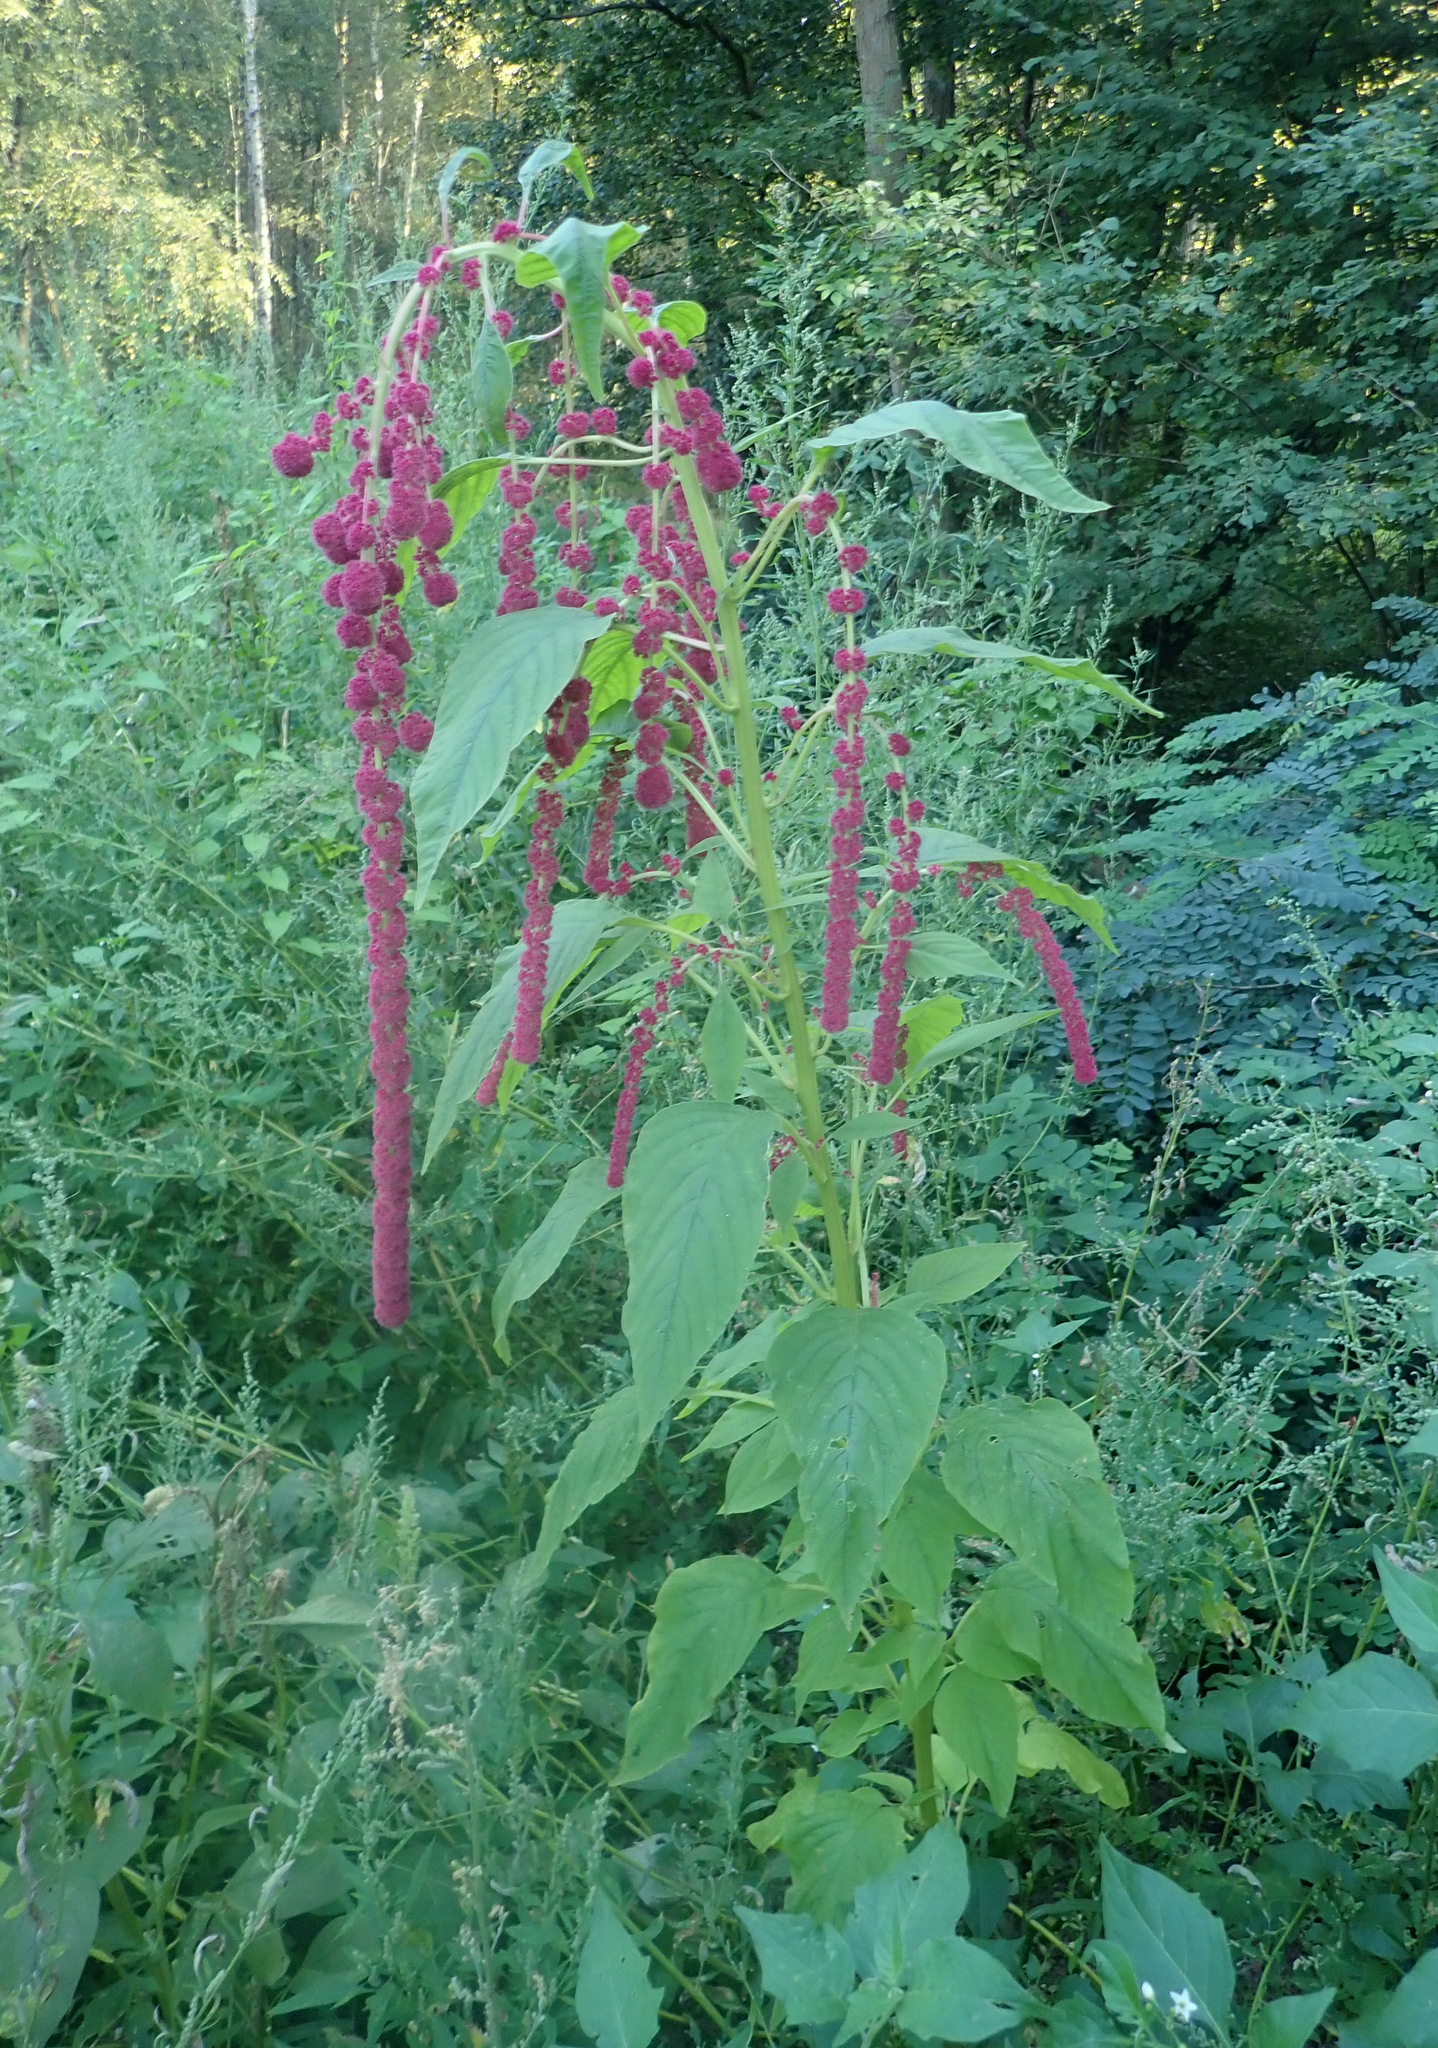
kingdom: Plantae
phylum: Tracheophyta
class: Magnoliopsida
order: Caryophyllales
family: Amaranthaceae
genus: Amaranthus
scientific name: Amaranthus caudatus
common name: Love-lies-bleeding
